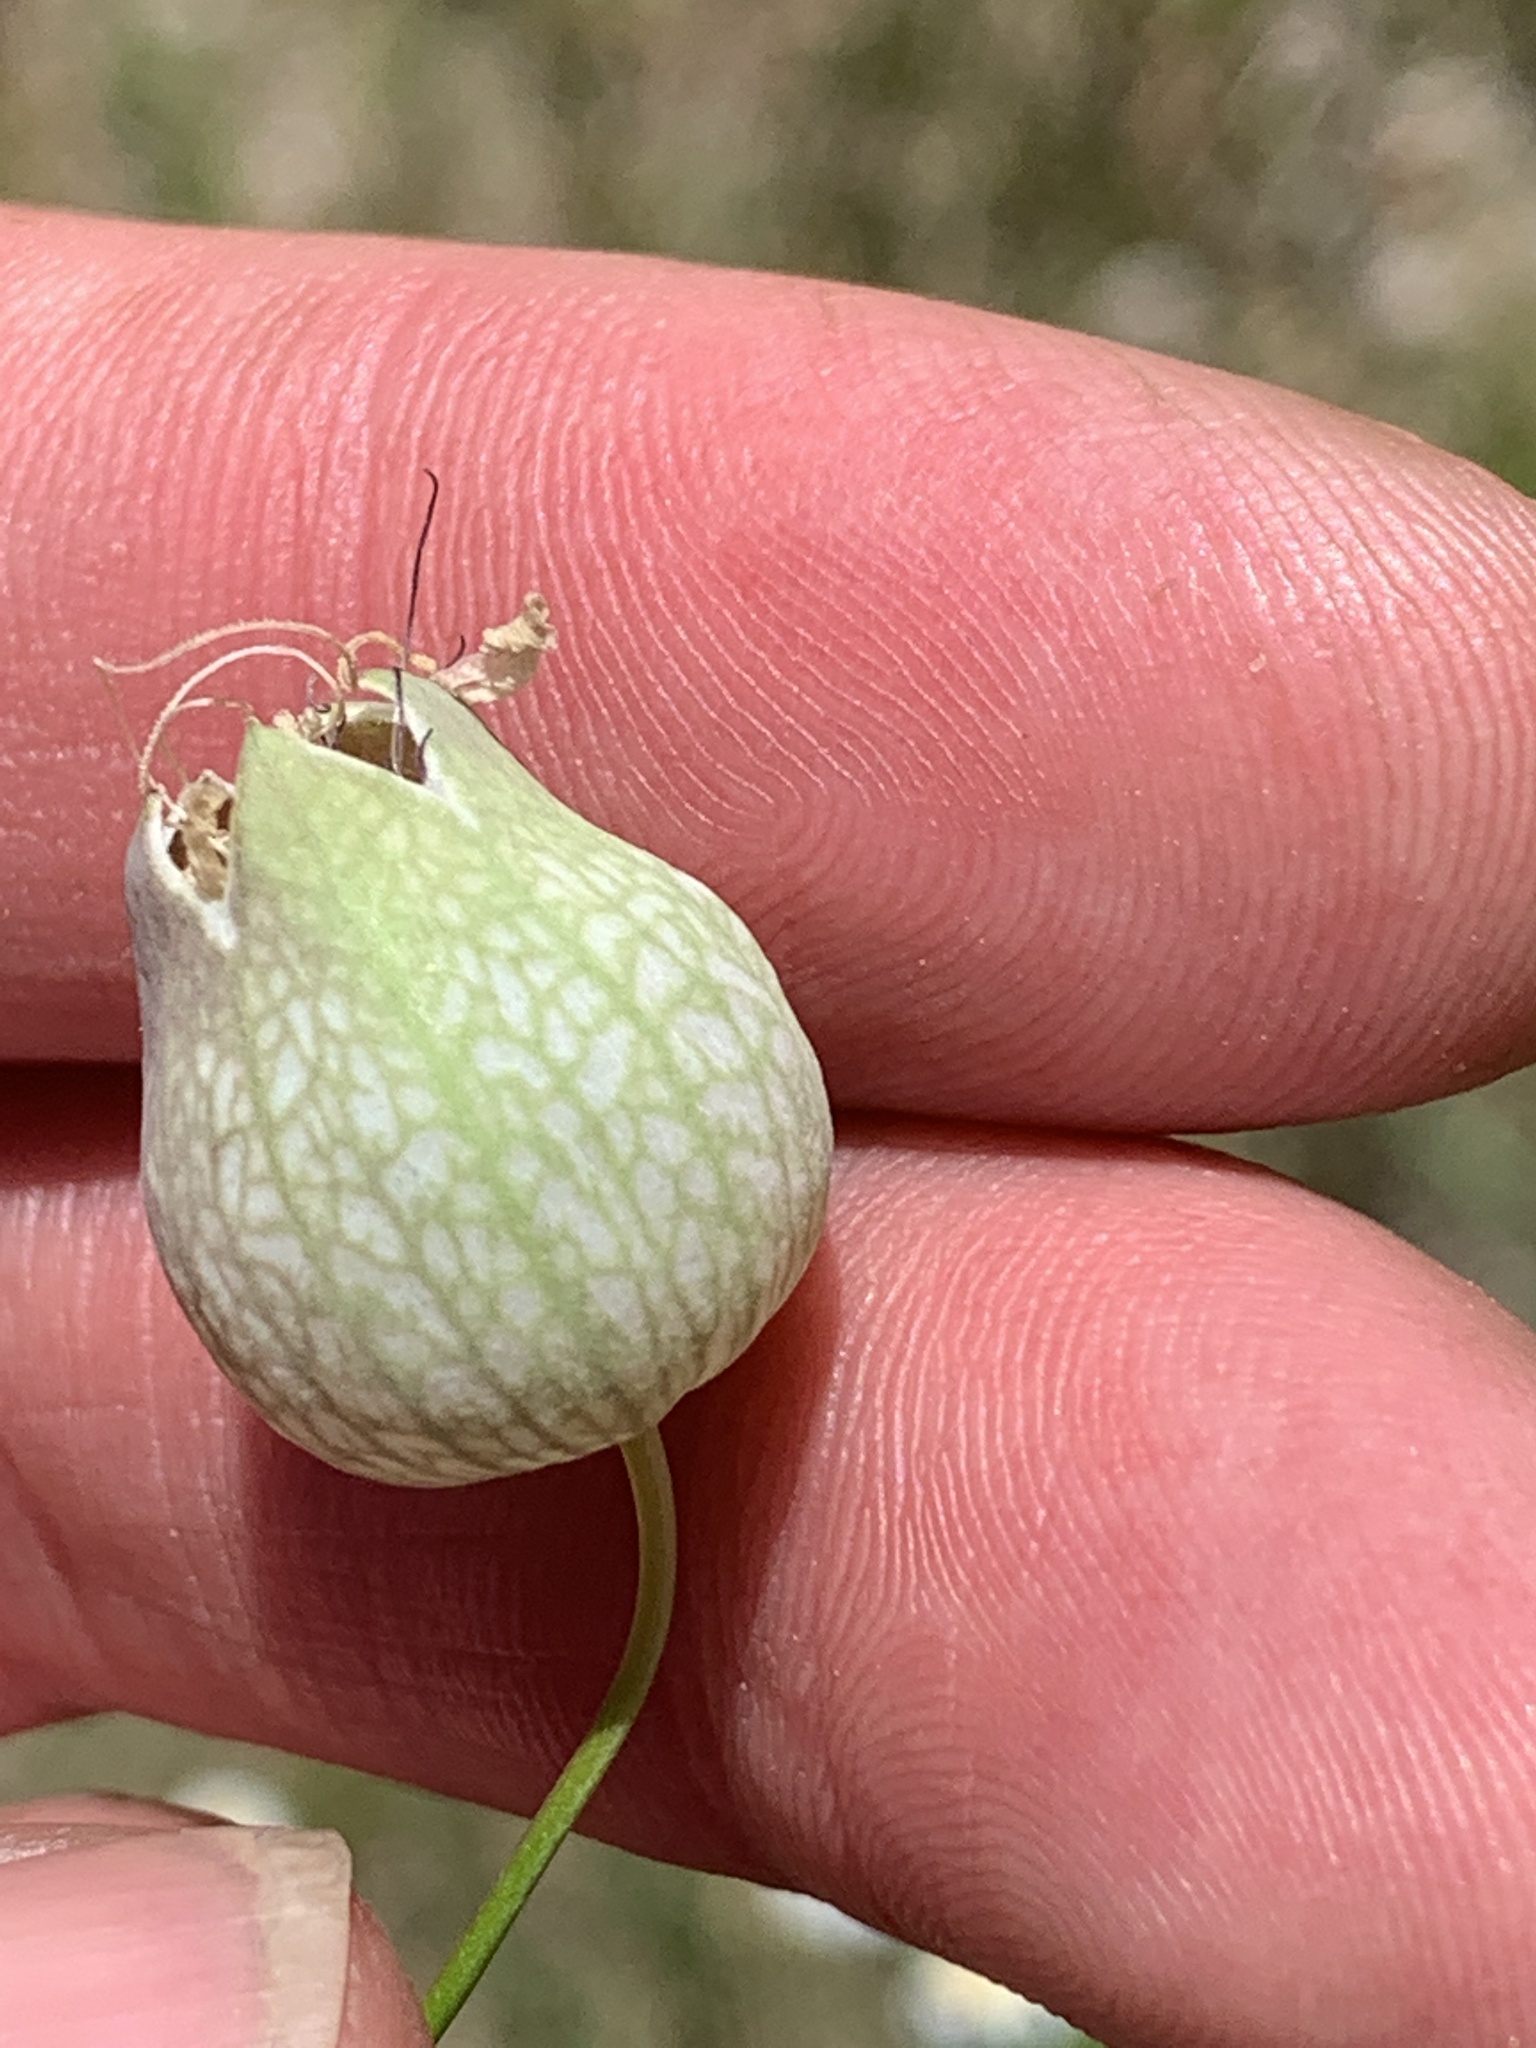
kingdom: Plantae
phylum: Tracheophyta
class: Magnoliopsida
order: Caryophyllales
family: Caryophyllaceae
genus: Silene
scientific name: Silene vulgaris
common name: Bladder campion
